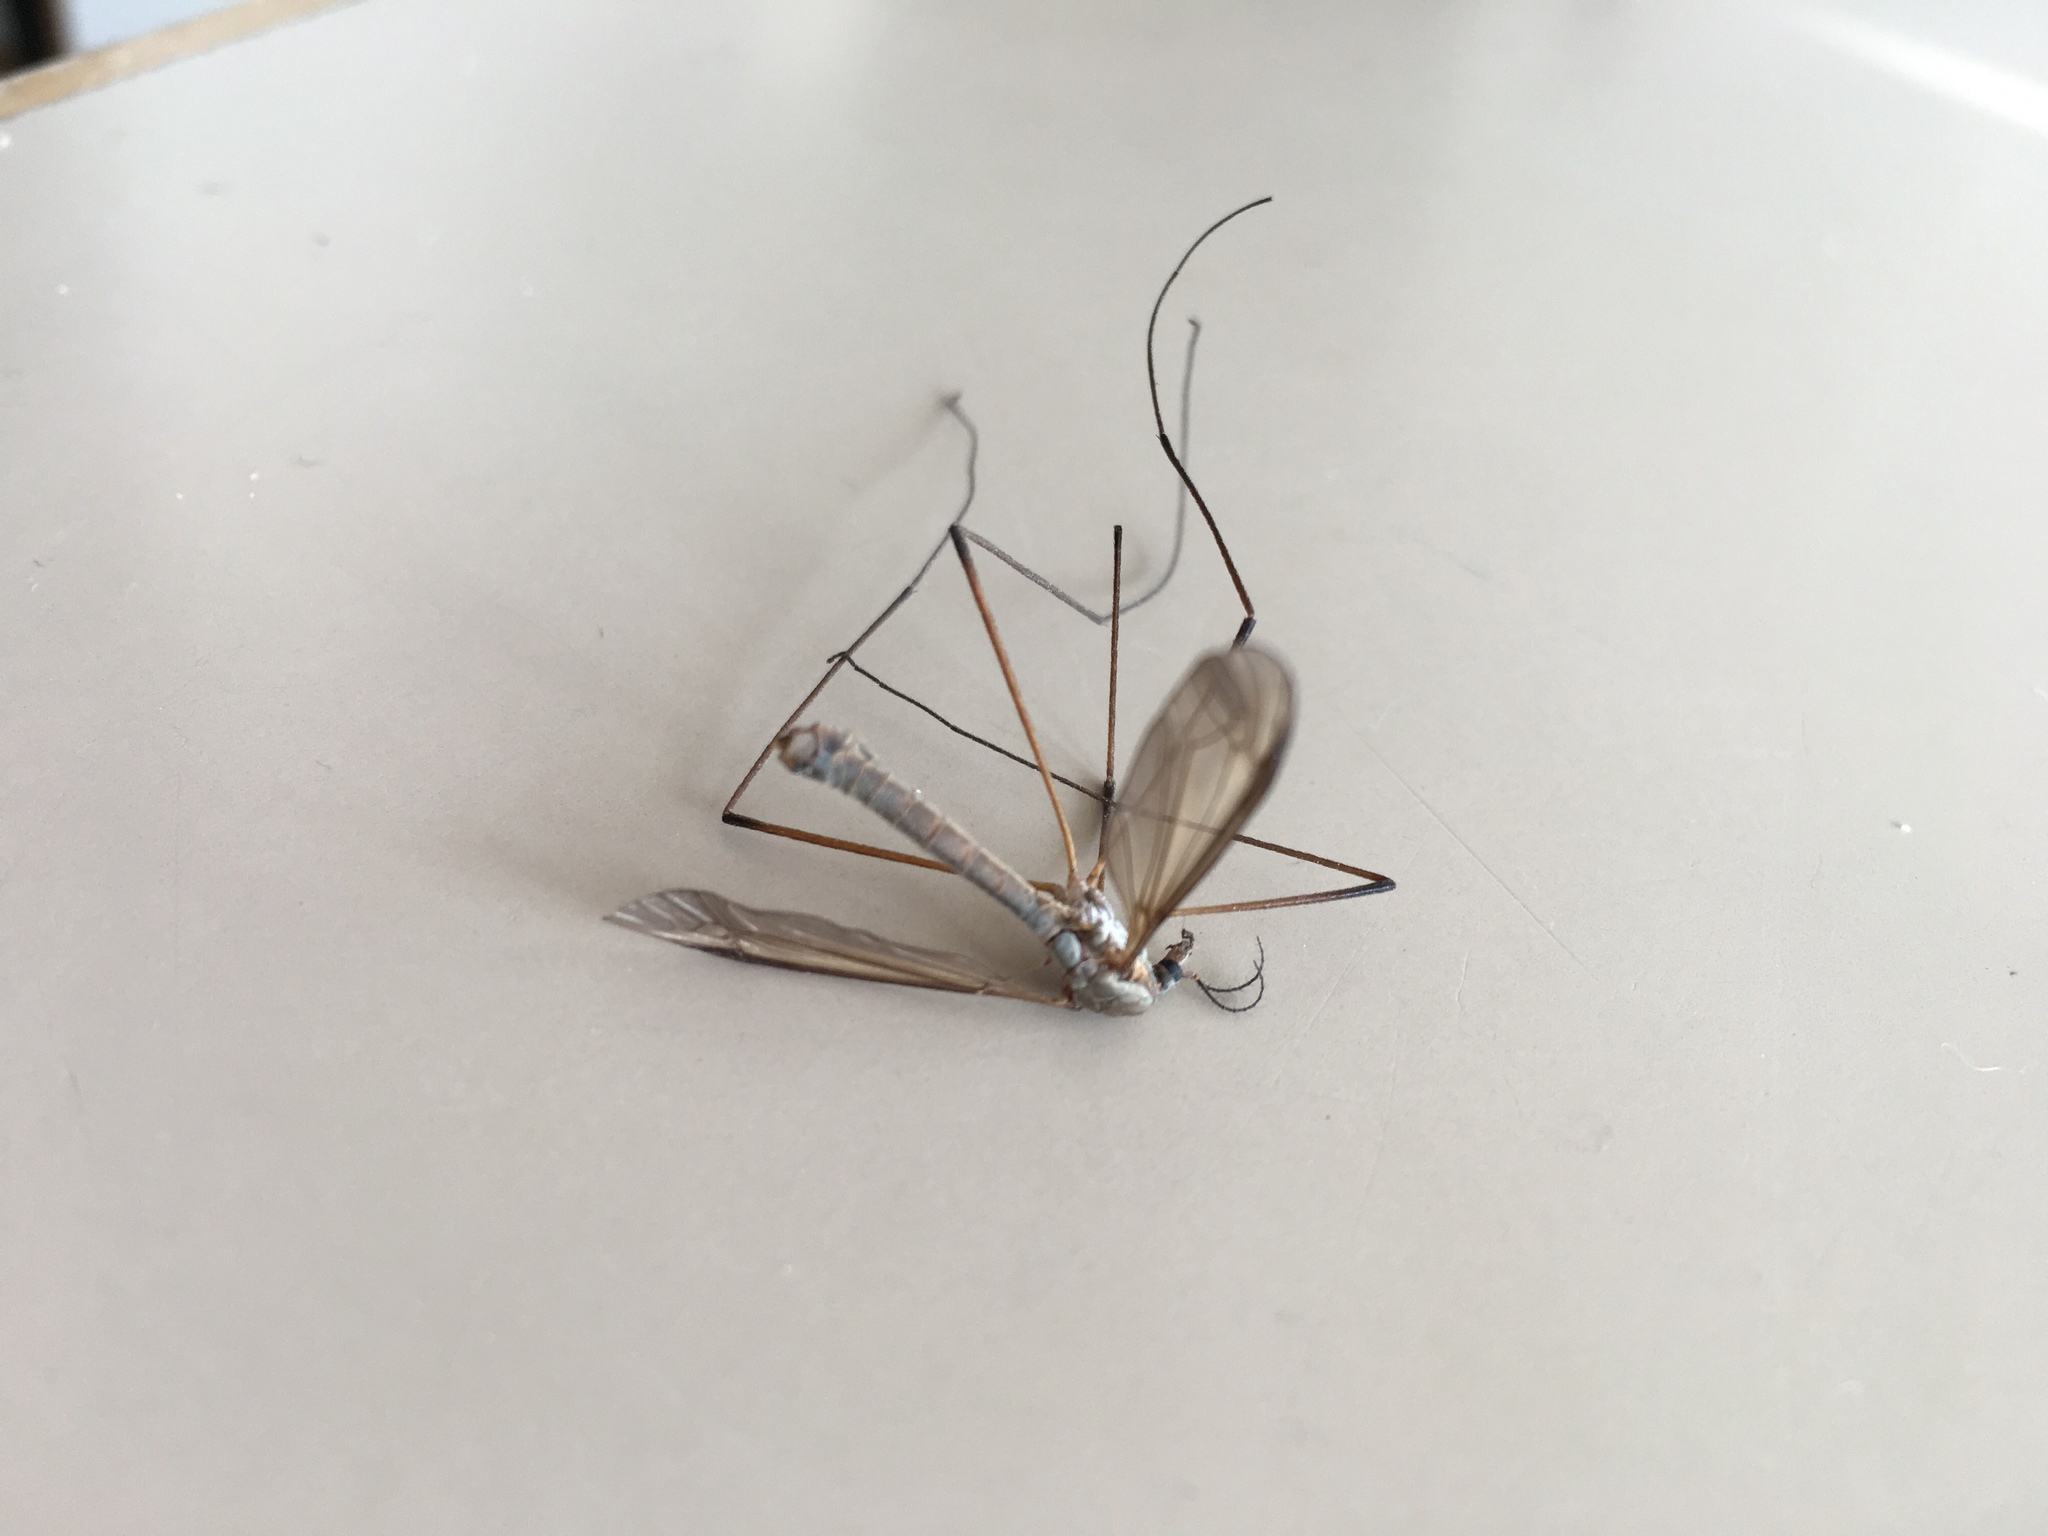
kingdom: Animalia
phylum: Arthropoda
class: Insecta
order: Diptera
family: Tipulidae
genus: Tipula
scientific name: Tipula paludosa
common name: European cranefly
